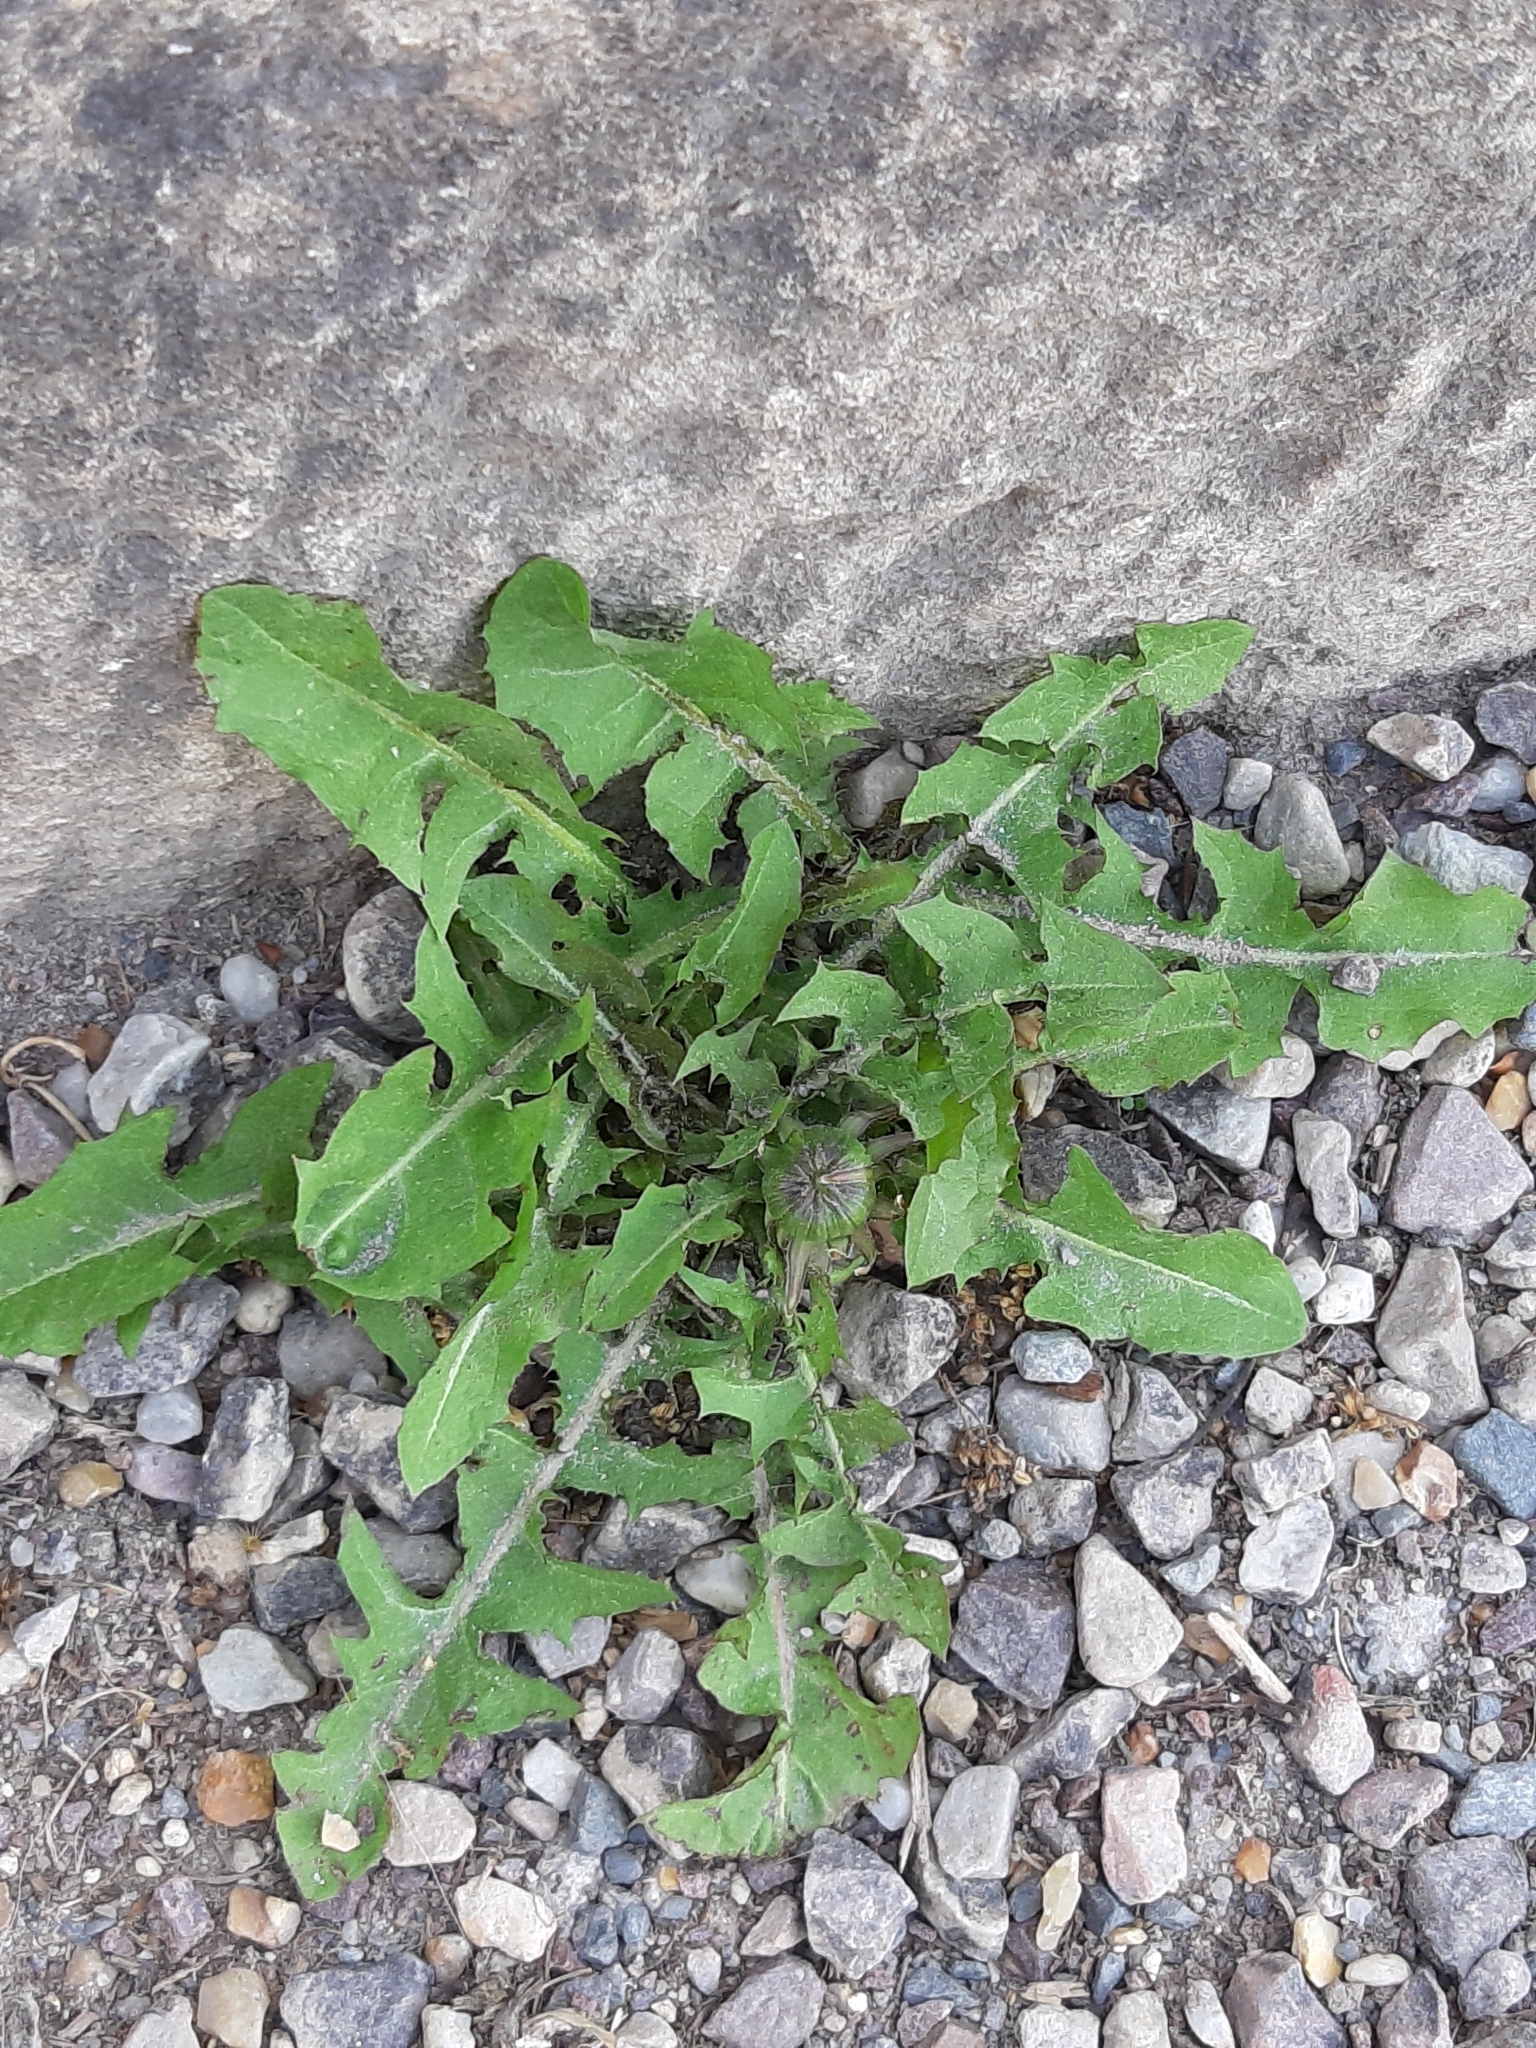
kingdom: Plantae
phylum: Tracheophyta
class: Magnoliopsida
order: Asterales
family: Asteraceae
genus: Taraxacum
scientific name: Taraxacum officinale
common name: Common dandelion
